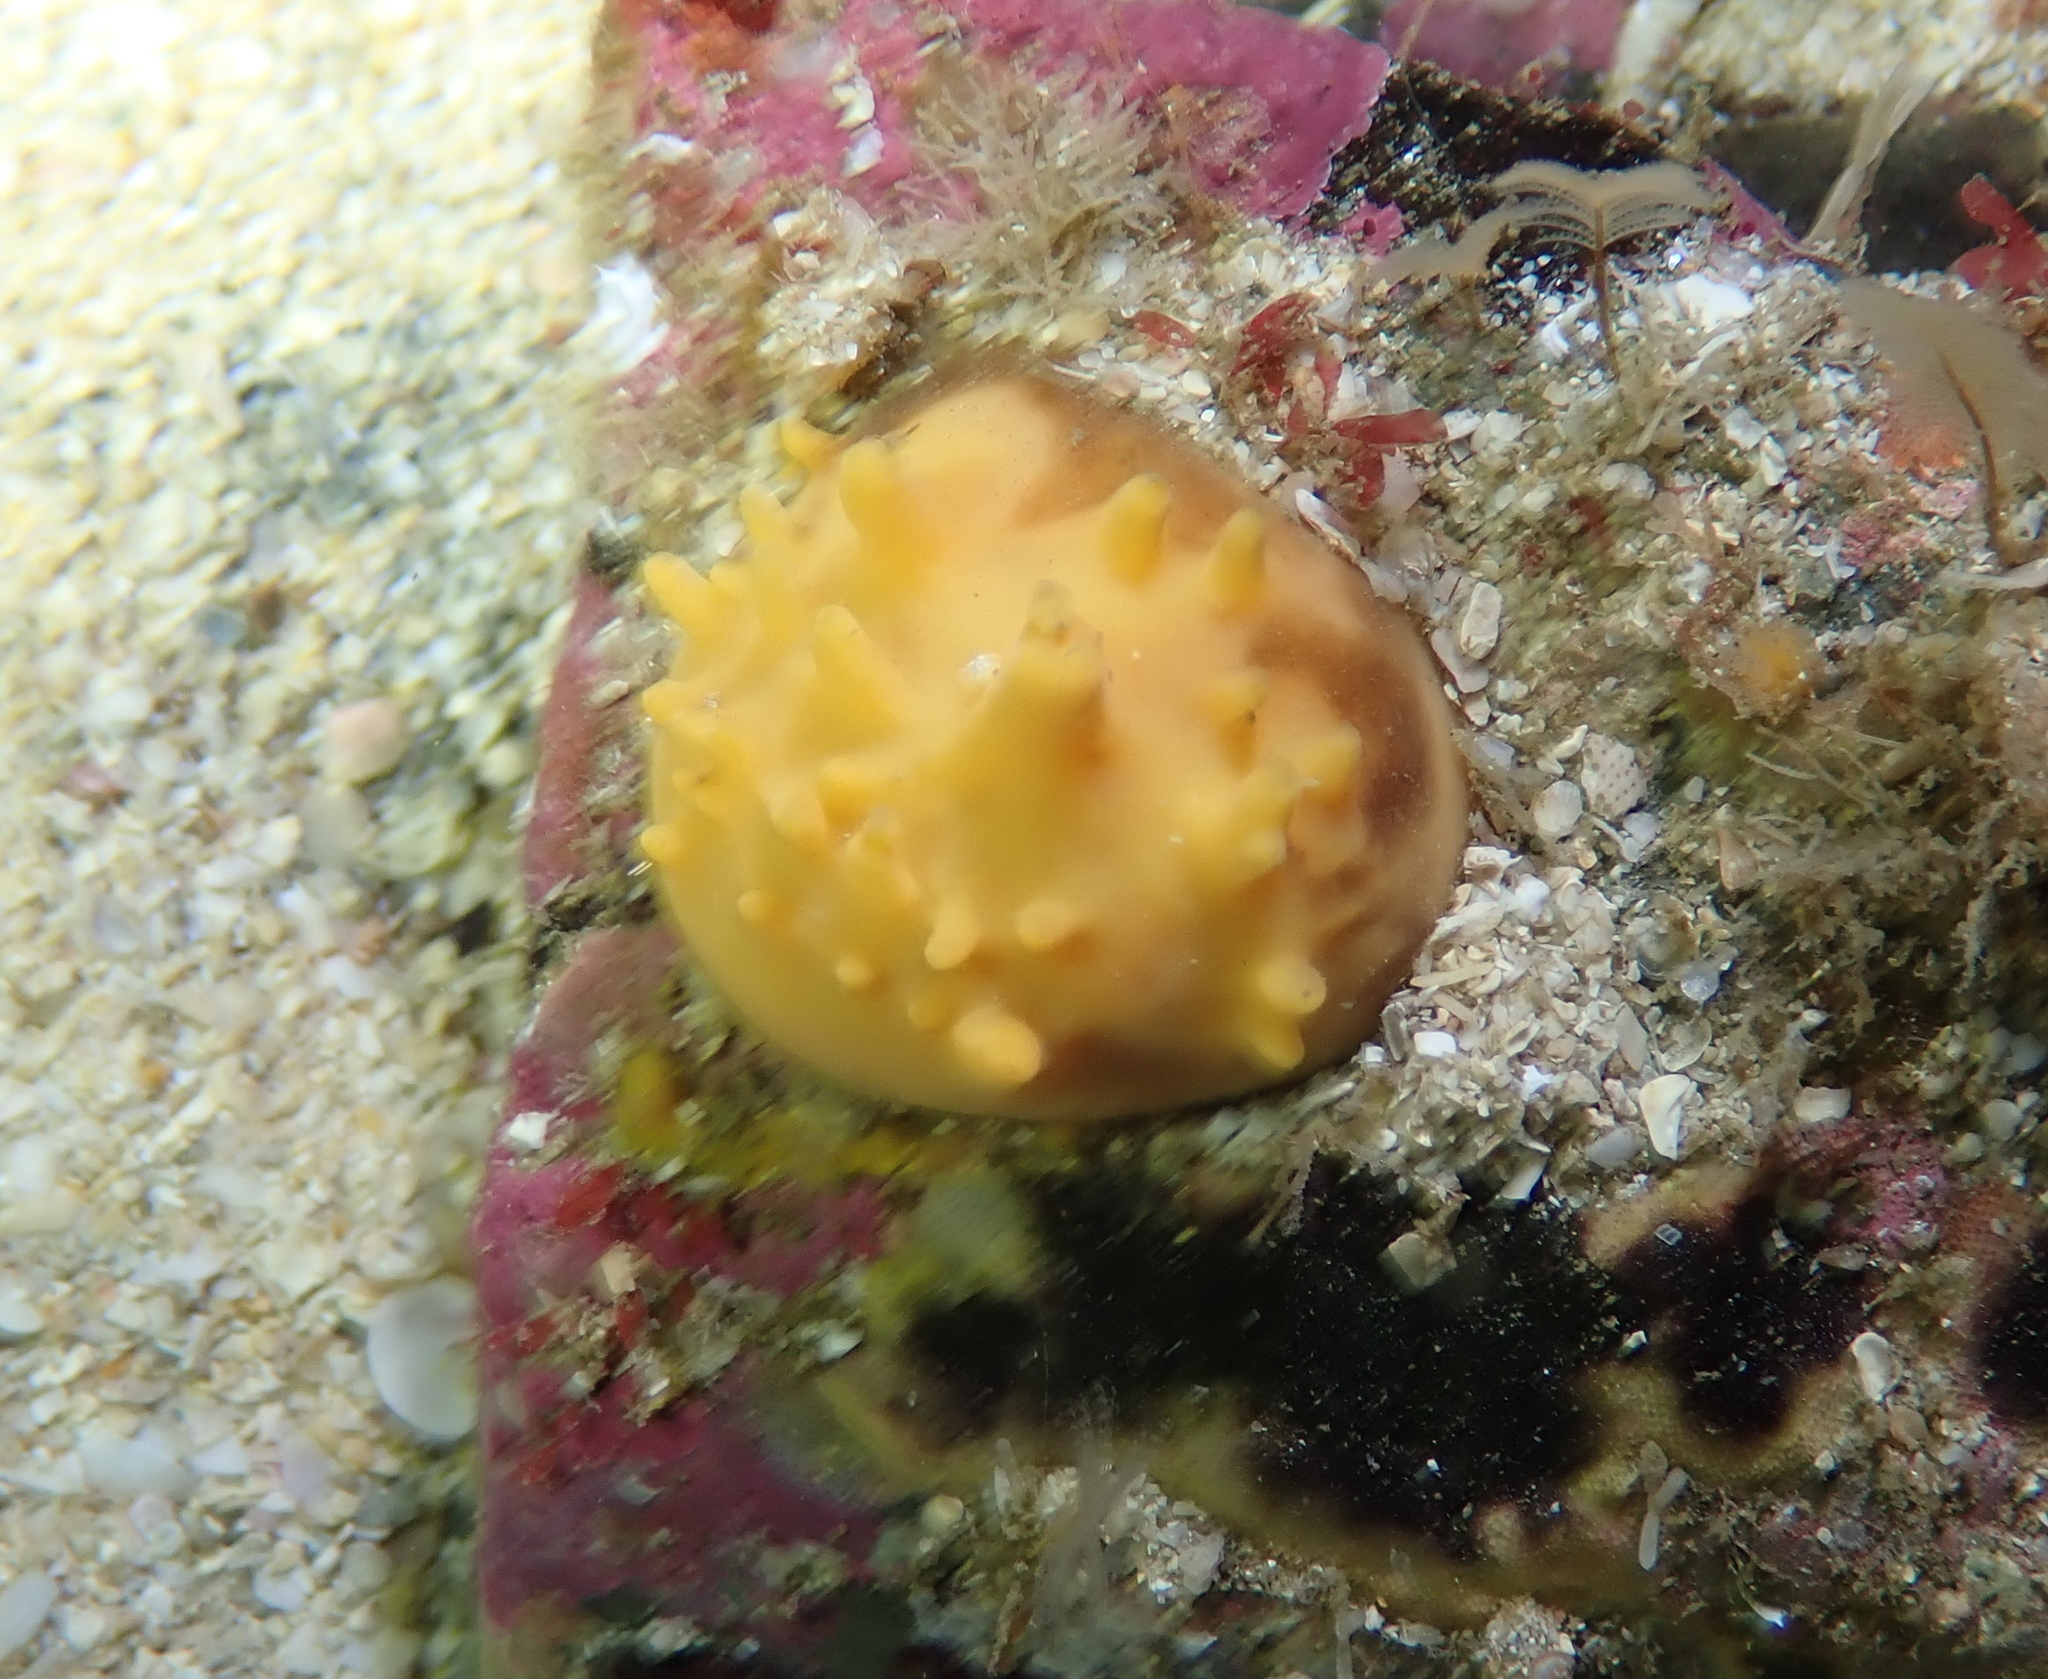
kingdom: Animalia
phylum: Porifera
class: Demospongiae
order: Polymastiida
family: Polymastiidae
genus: Polymastia
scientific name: Polymastia boletiformis
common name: Massive horny sponge
